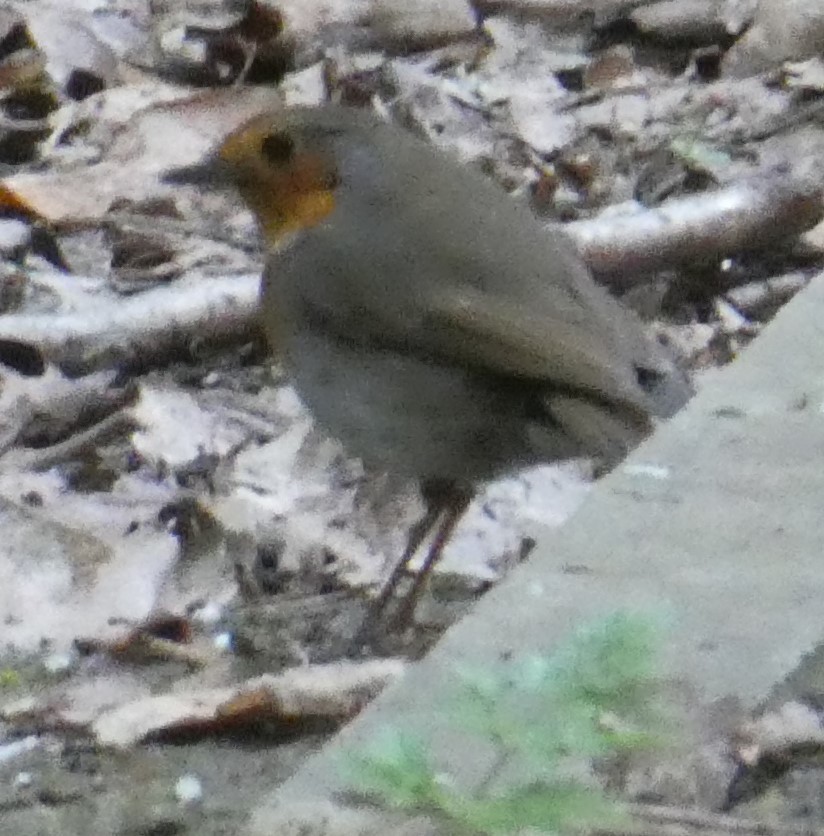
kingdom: Animalia
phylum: Chordata
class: Aves
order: Passeriformes
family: Muscicapidae
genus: Erithacus
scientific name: Erithacus rubecula
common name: European robin
